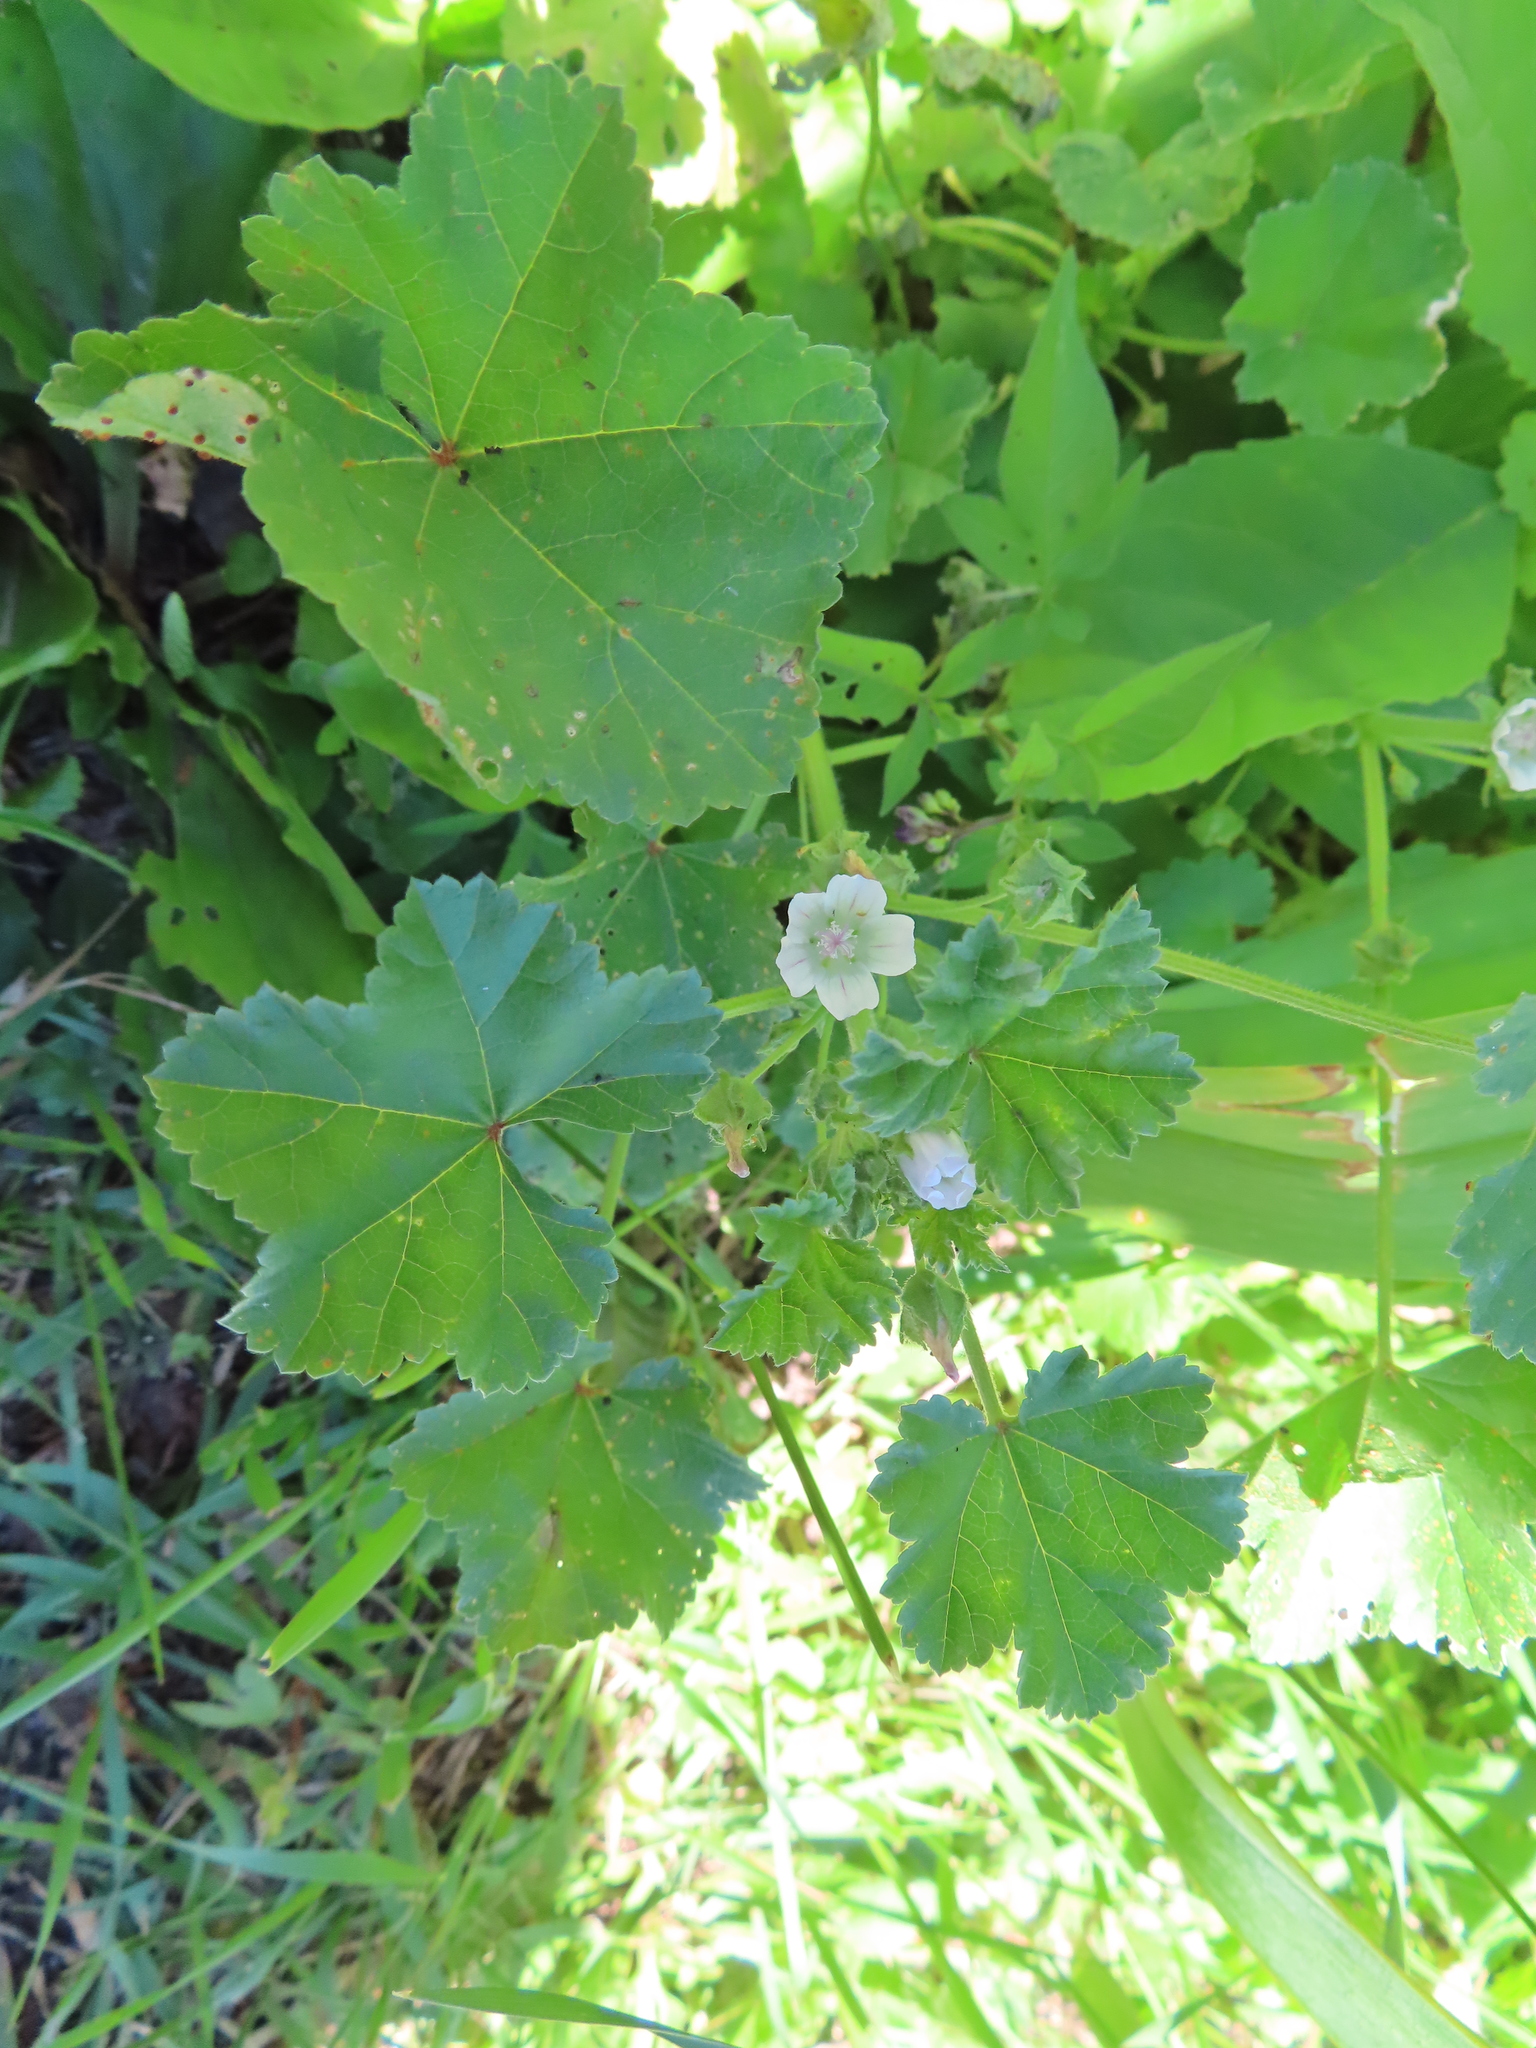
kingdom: Plantae
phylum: Tracheophyta
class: Magnoliopsida
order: Malvales
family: Malvaceae
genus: Malva
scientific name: Malva neglecta
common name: Common mallow
